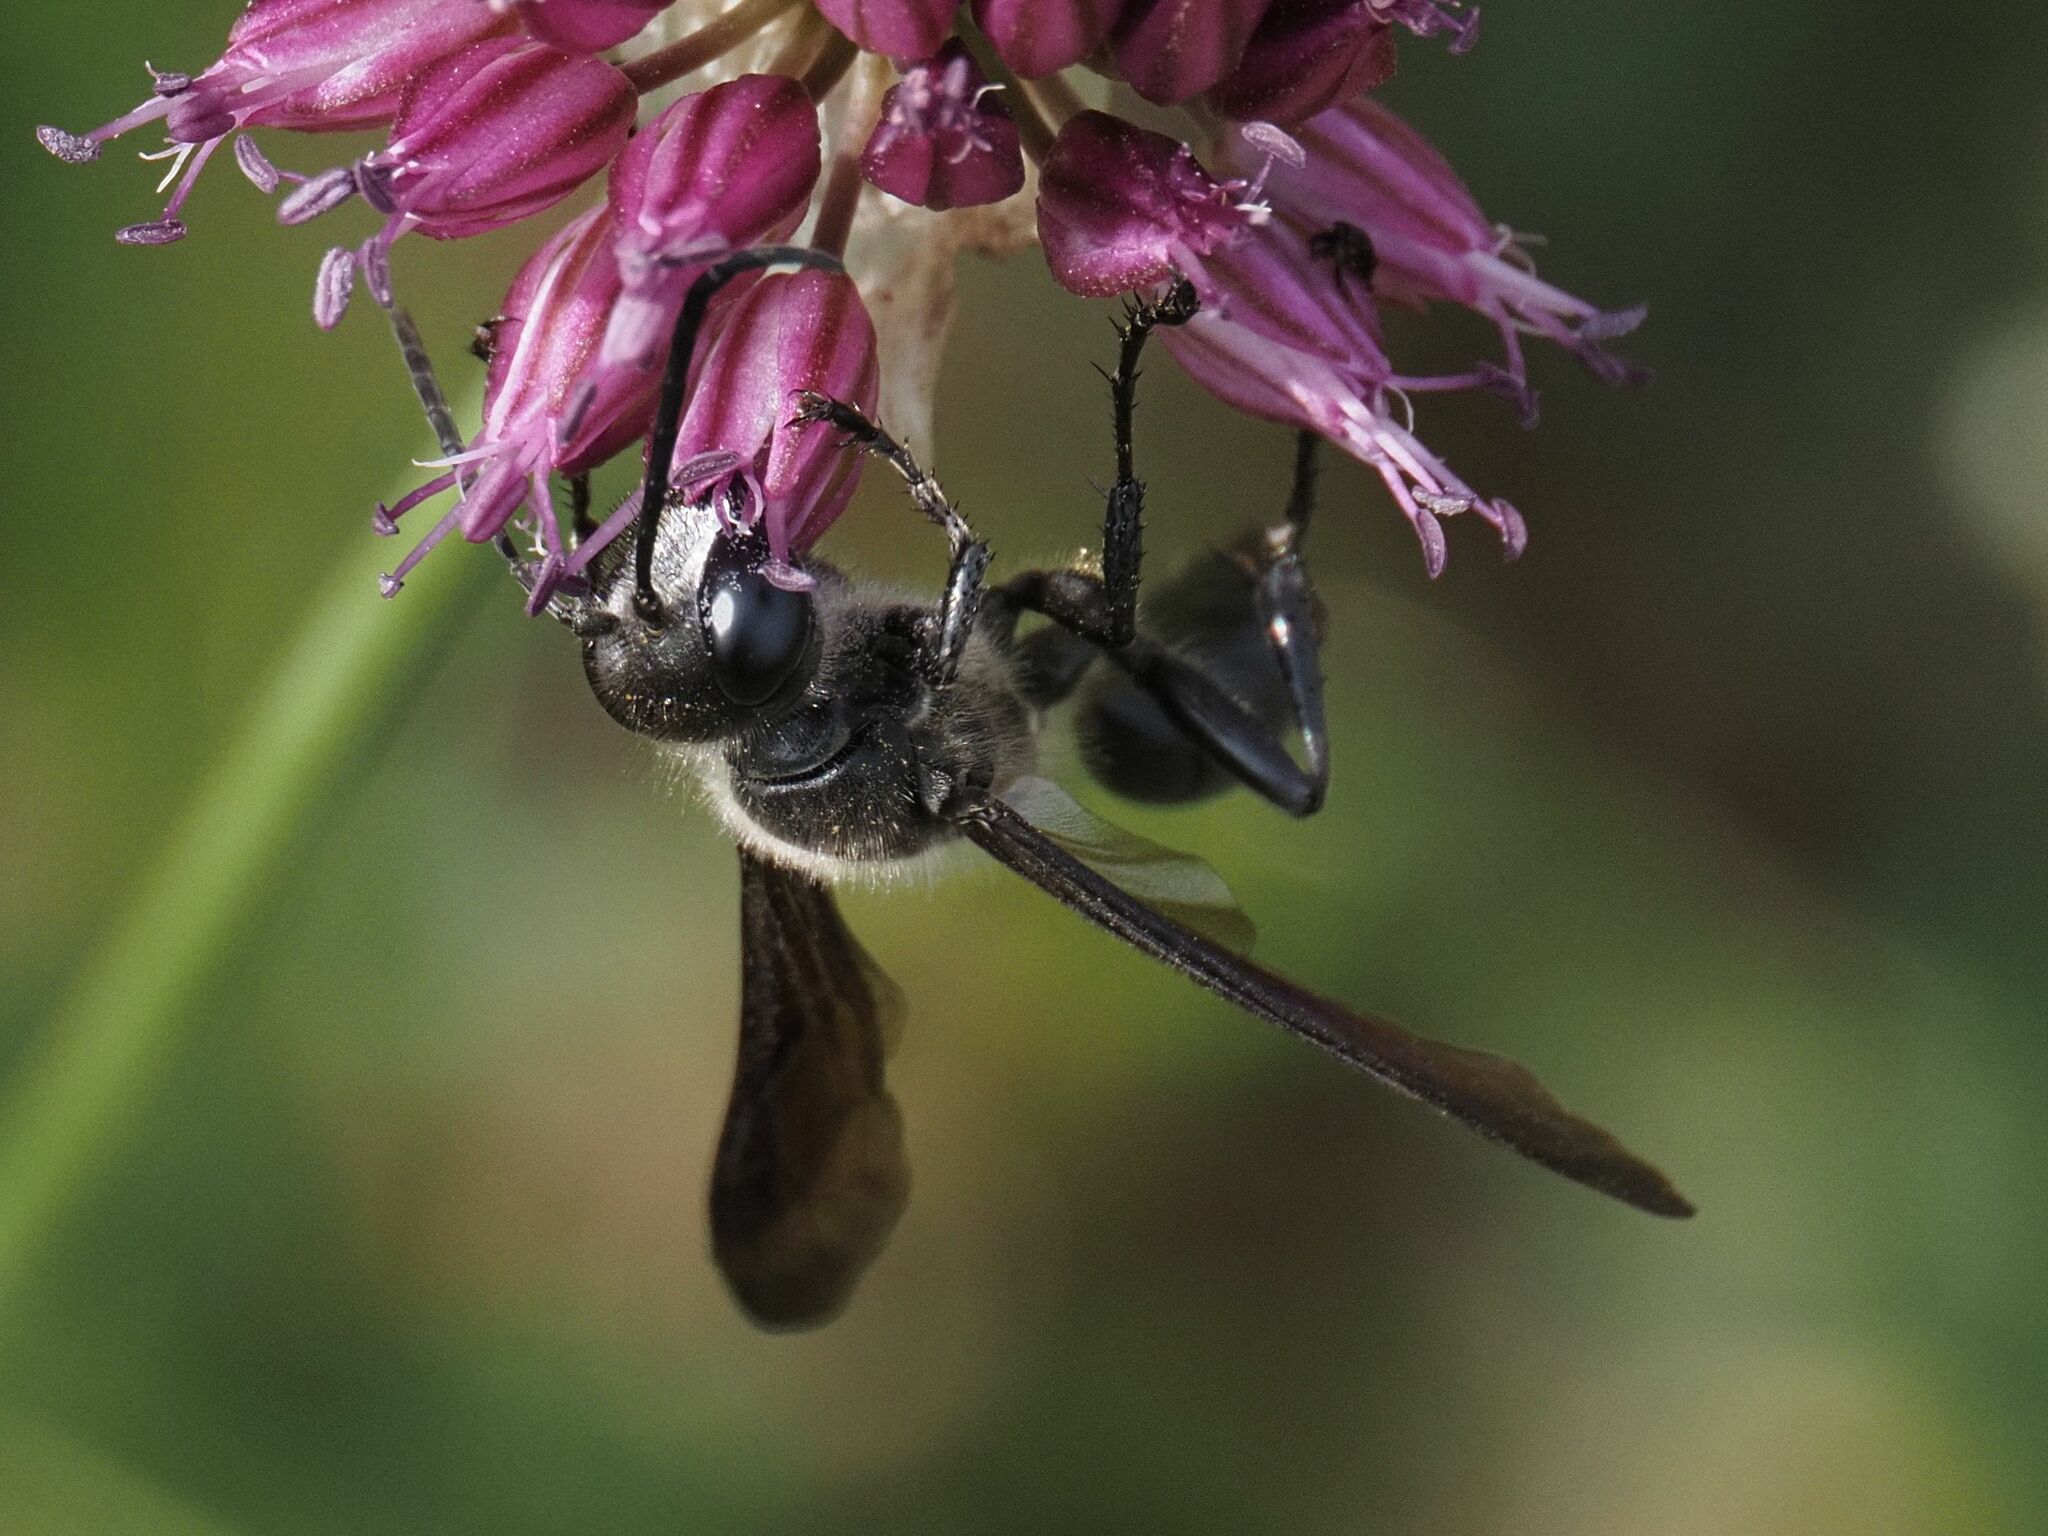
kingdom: Animalia
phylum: Arthropoda
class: Insecta
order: Hymenoptera
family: Sphecidae
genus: Isodontia
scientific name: Isodontia mexicana
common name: Mud dauber
